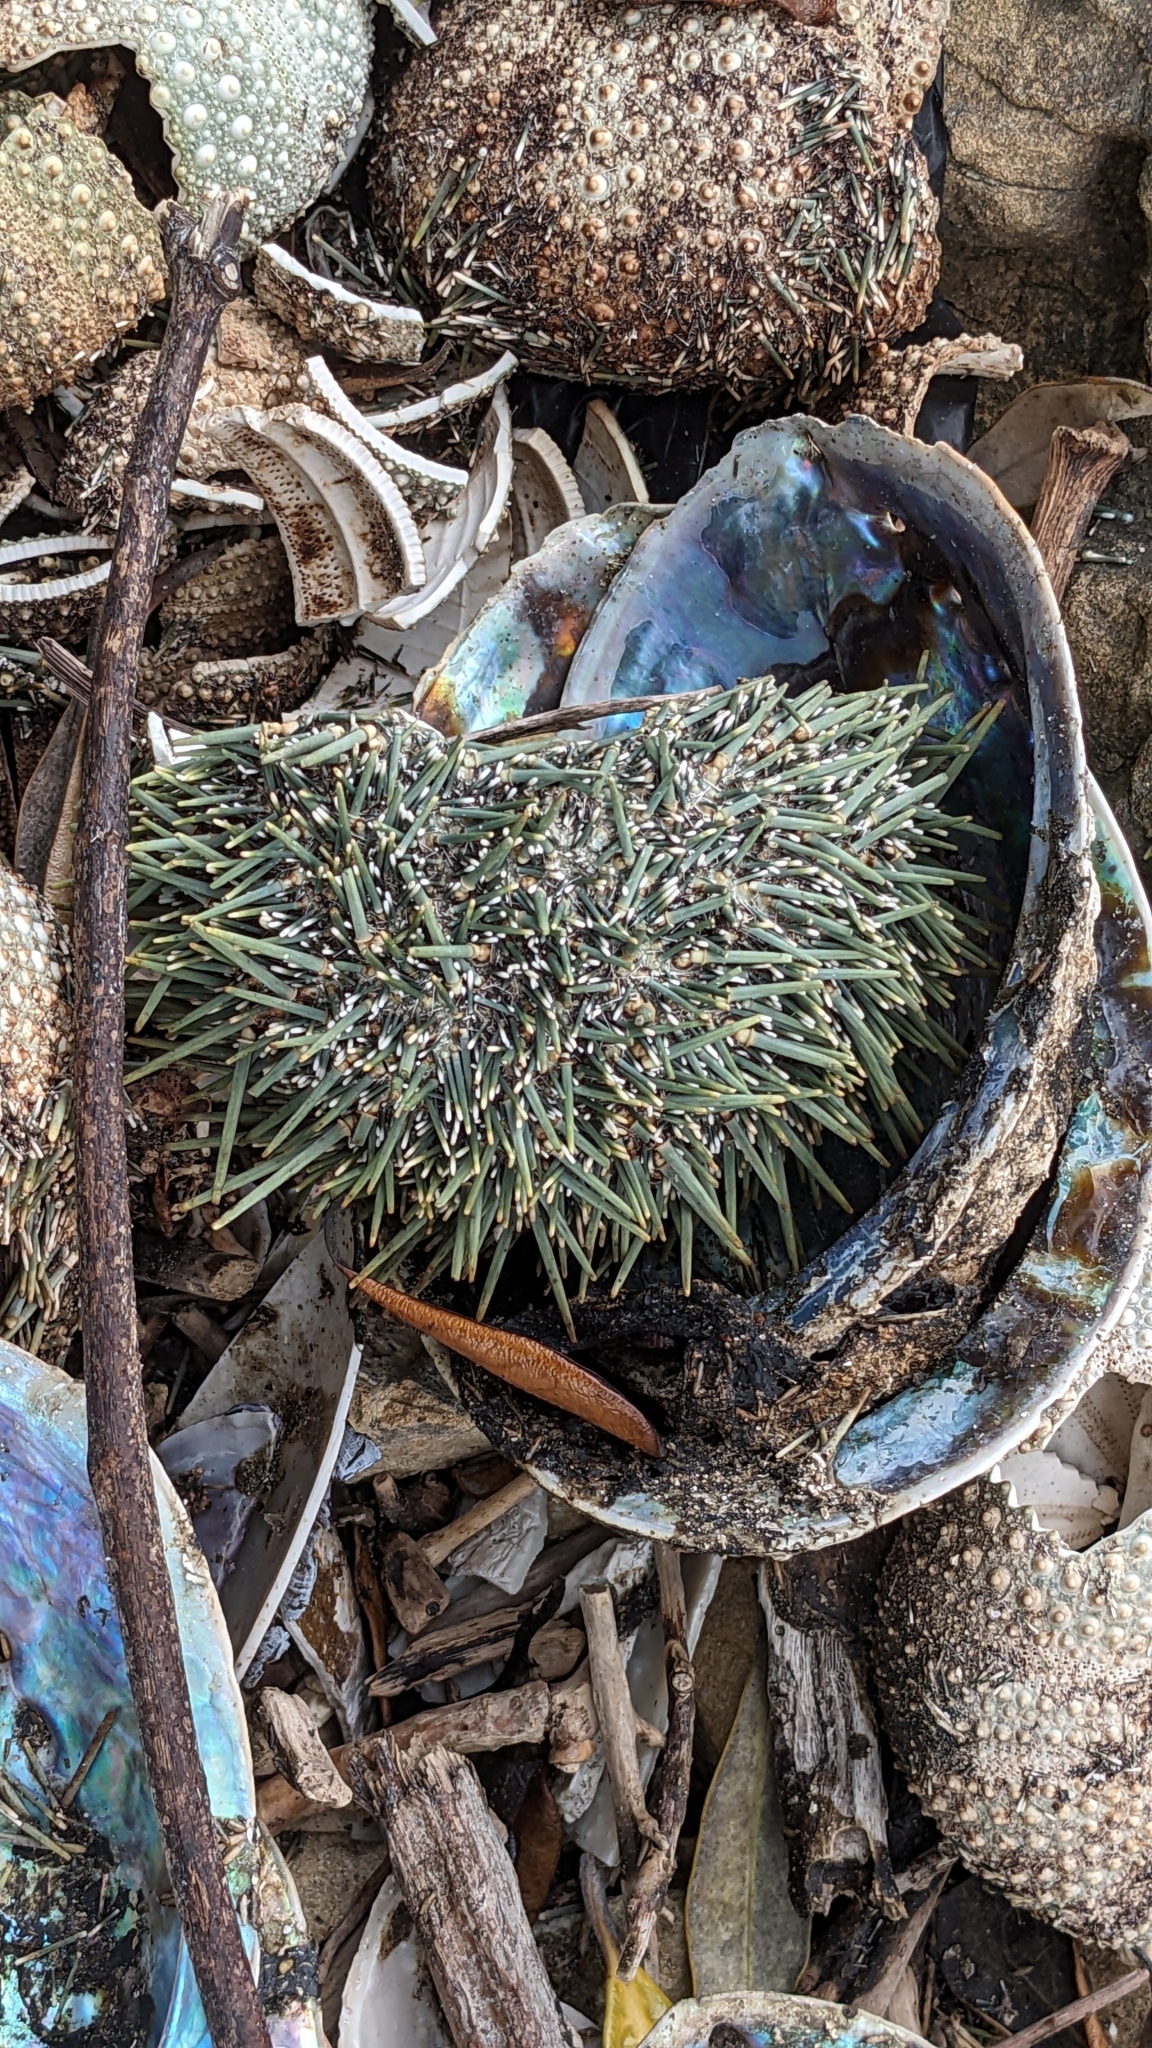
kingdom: Animalia
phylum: Echinodermata
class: Echinoidea
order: Camarodonta
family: Echinometridae
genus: Evechinus
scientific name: Evechinus chloroticus
